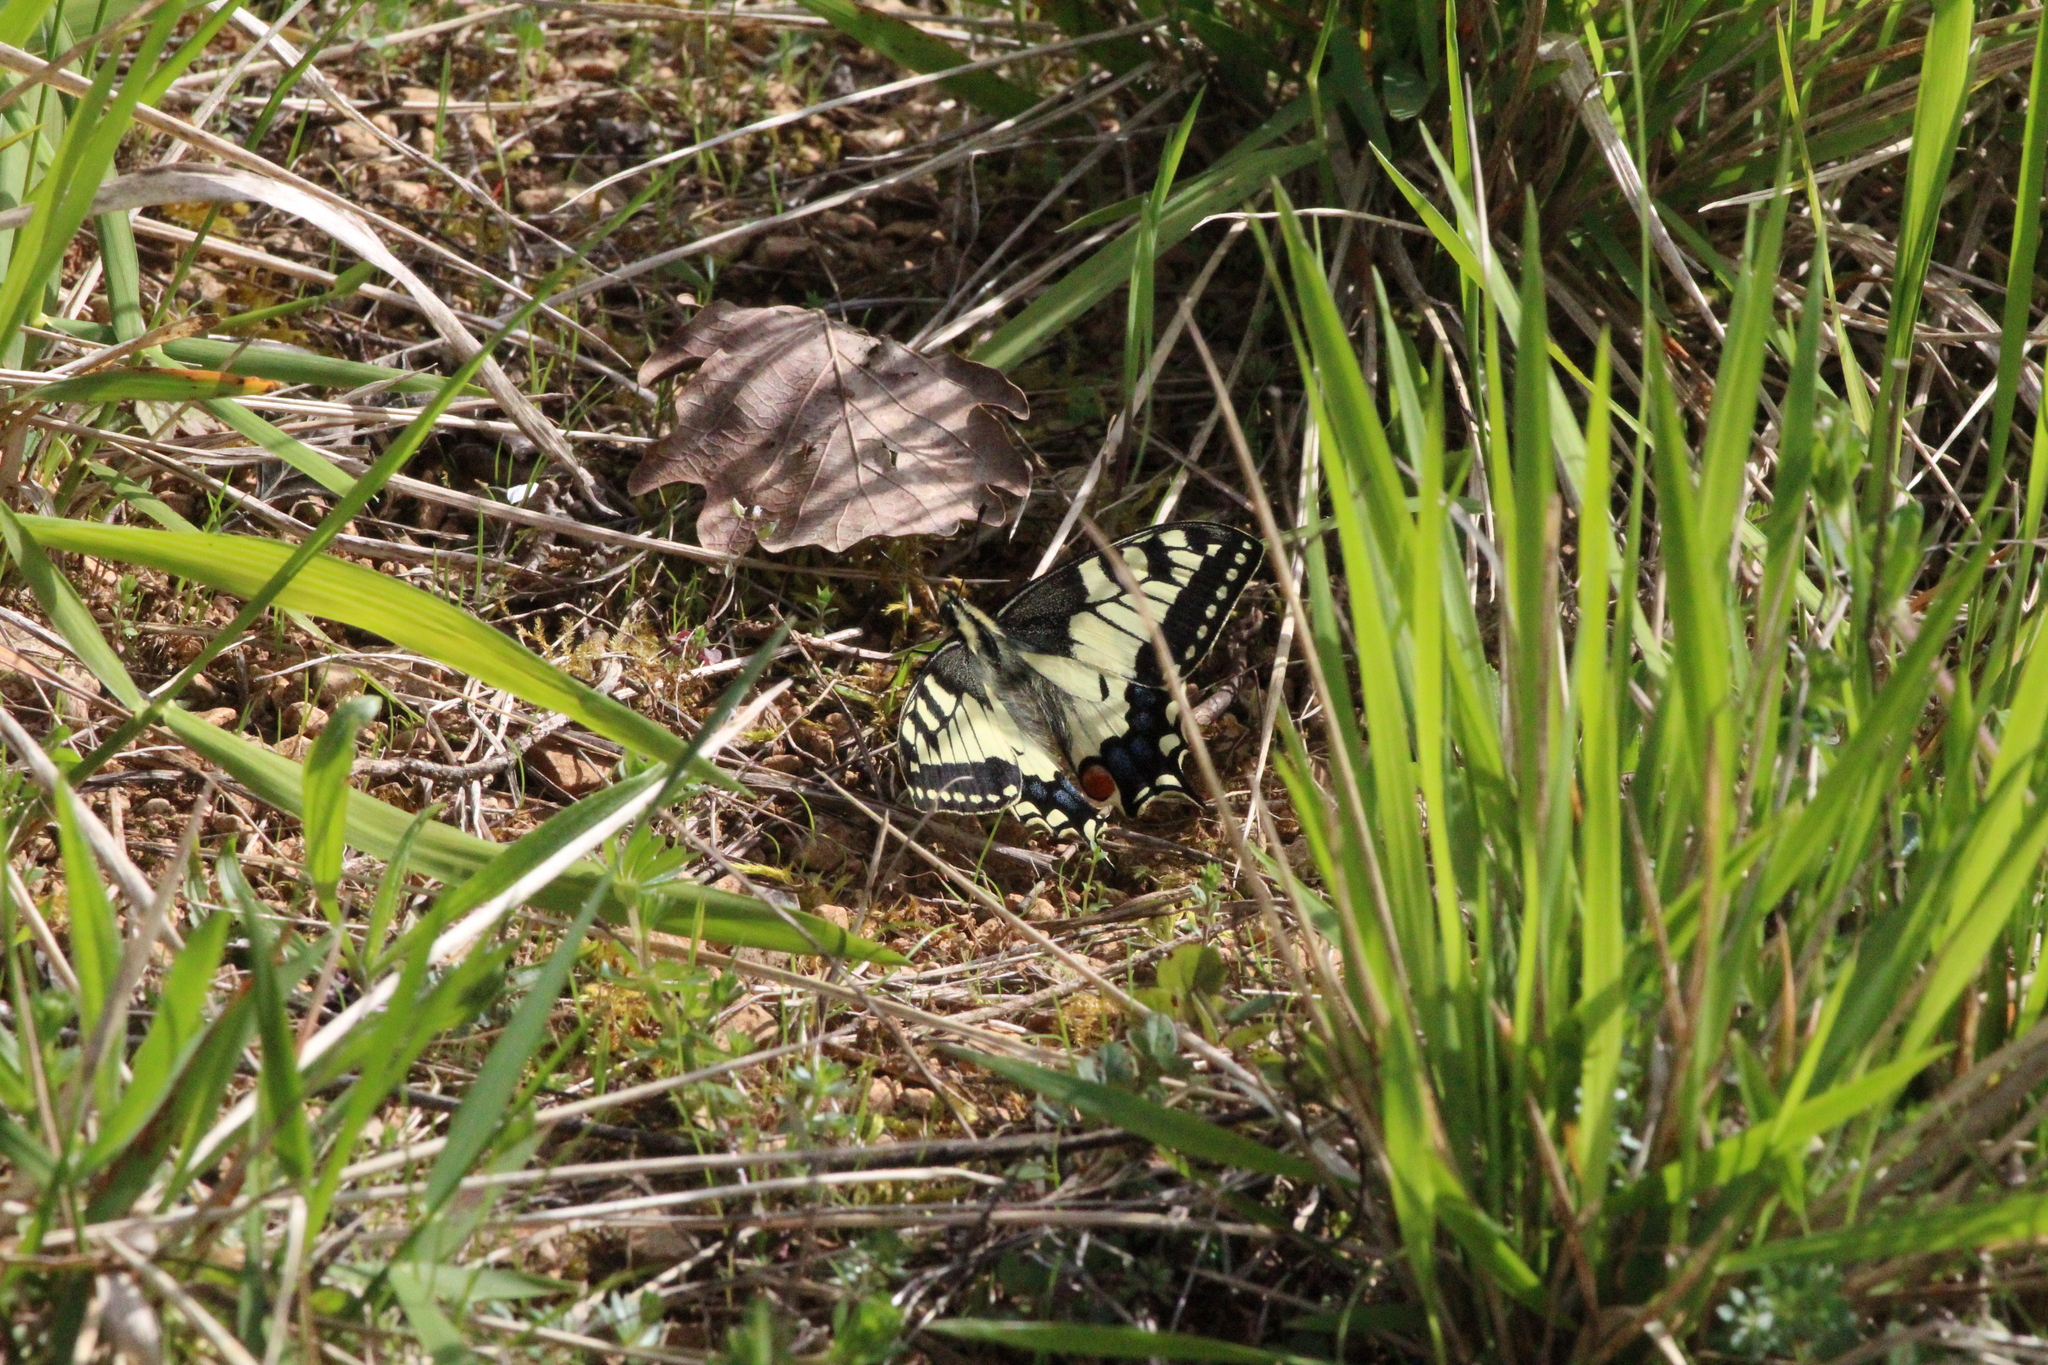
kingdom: Animalia
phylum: Arthropoda
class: Insecta
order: Lepidoptera
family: Papilionidae
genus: Papilio
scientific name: Papilio machaon
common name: Swallowtail
